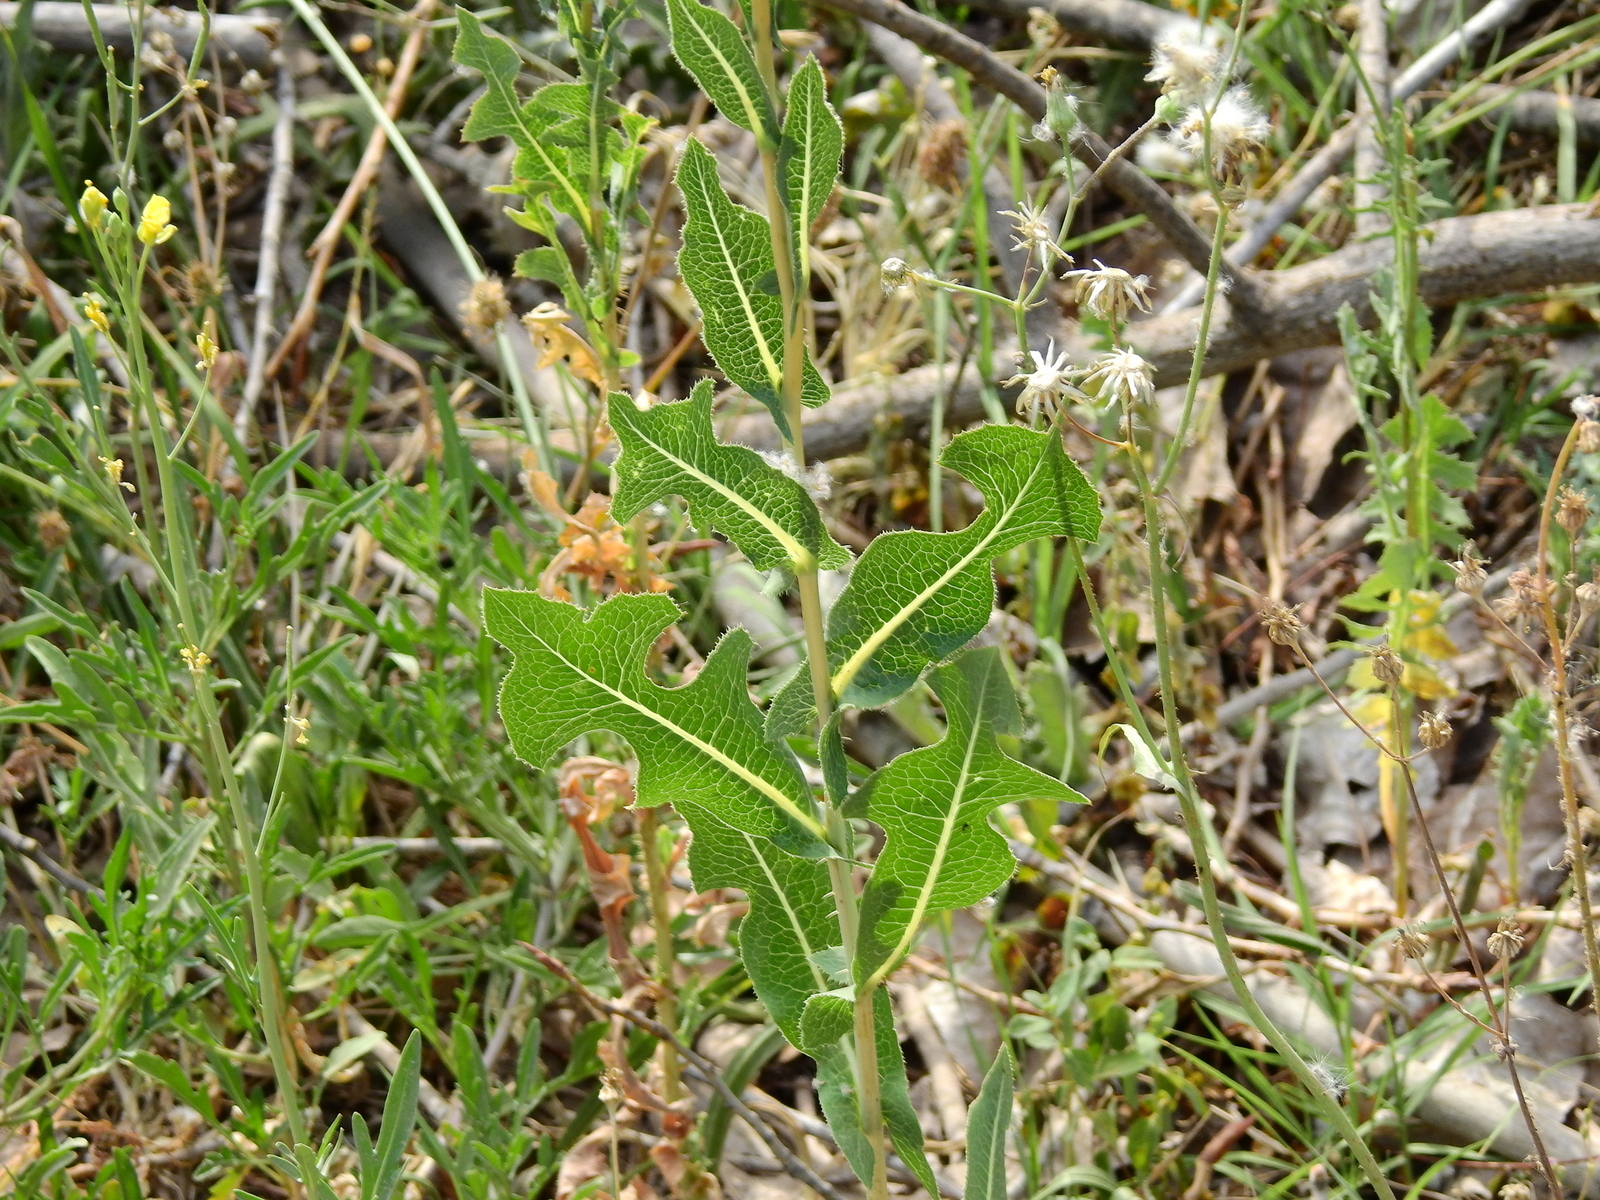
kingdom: Plantae
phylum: Tracheophyta
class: Magnoliopsida
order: Asterales
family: Asteraceae
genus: Lactuca
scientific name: Lactuca serriola
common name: Prickly lettuce
